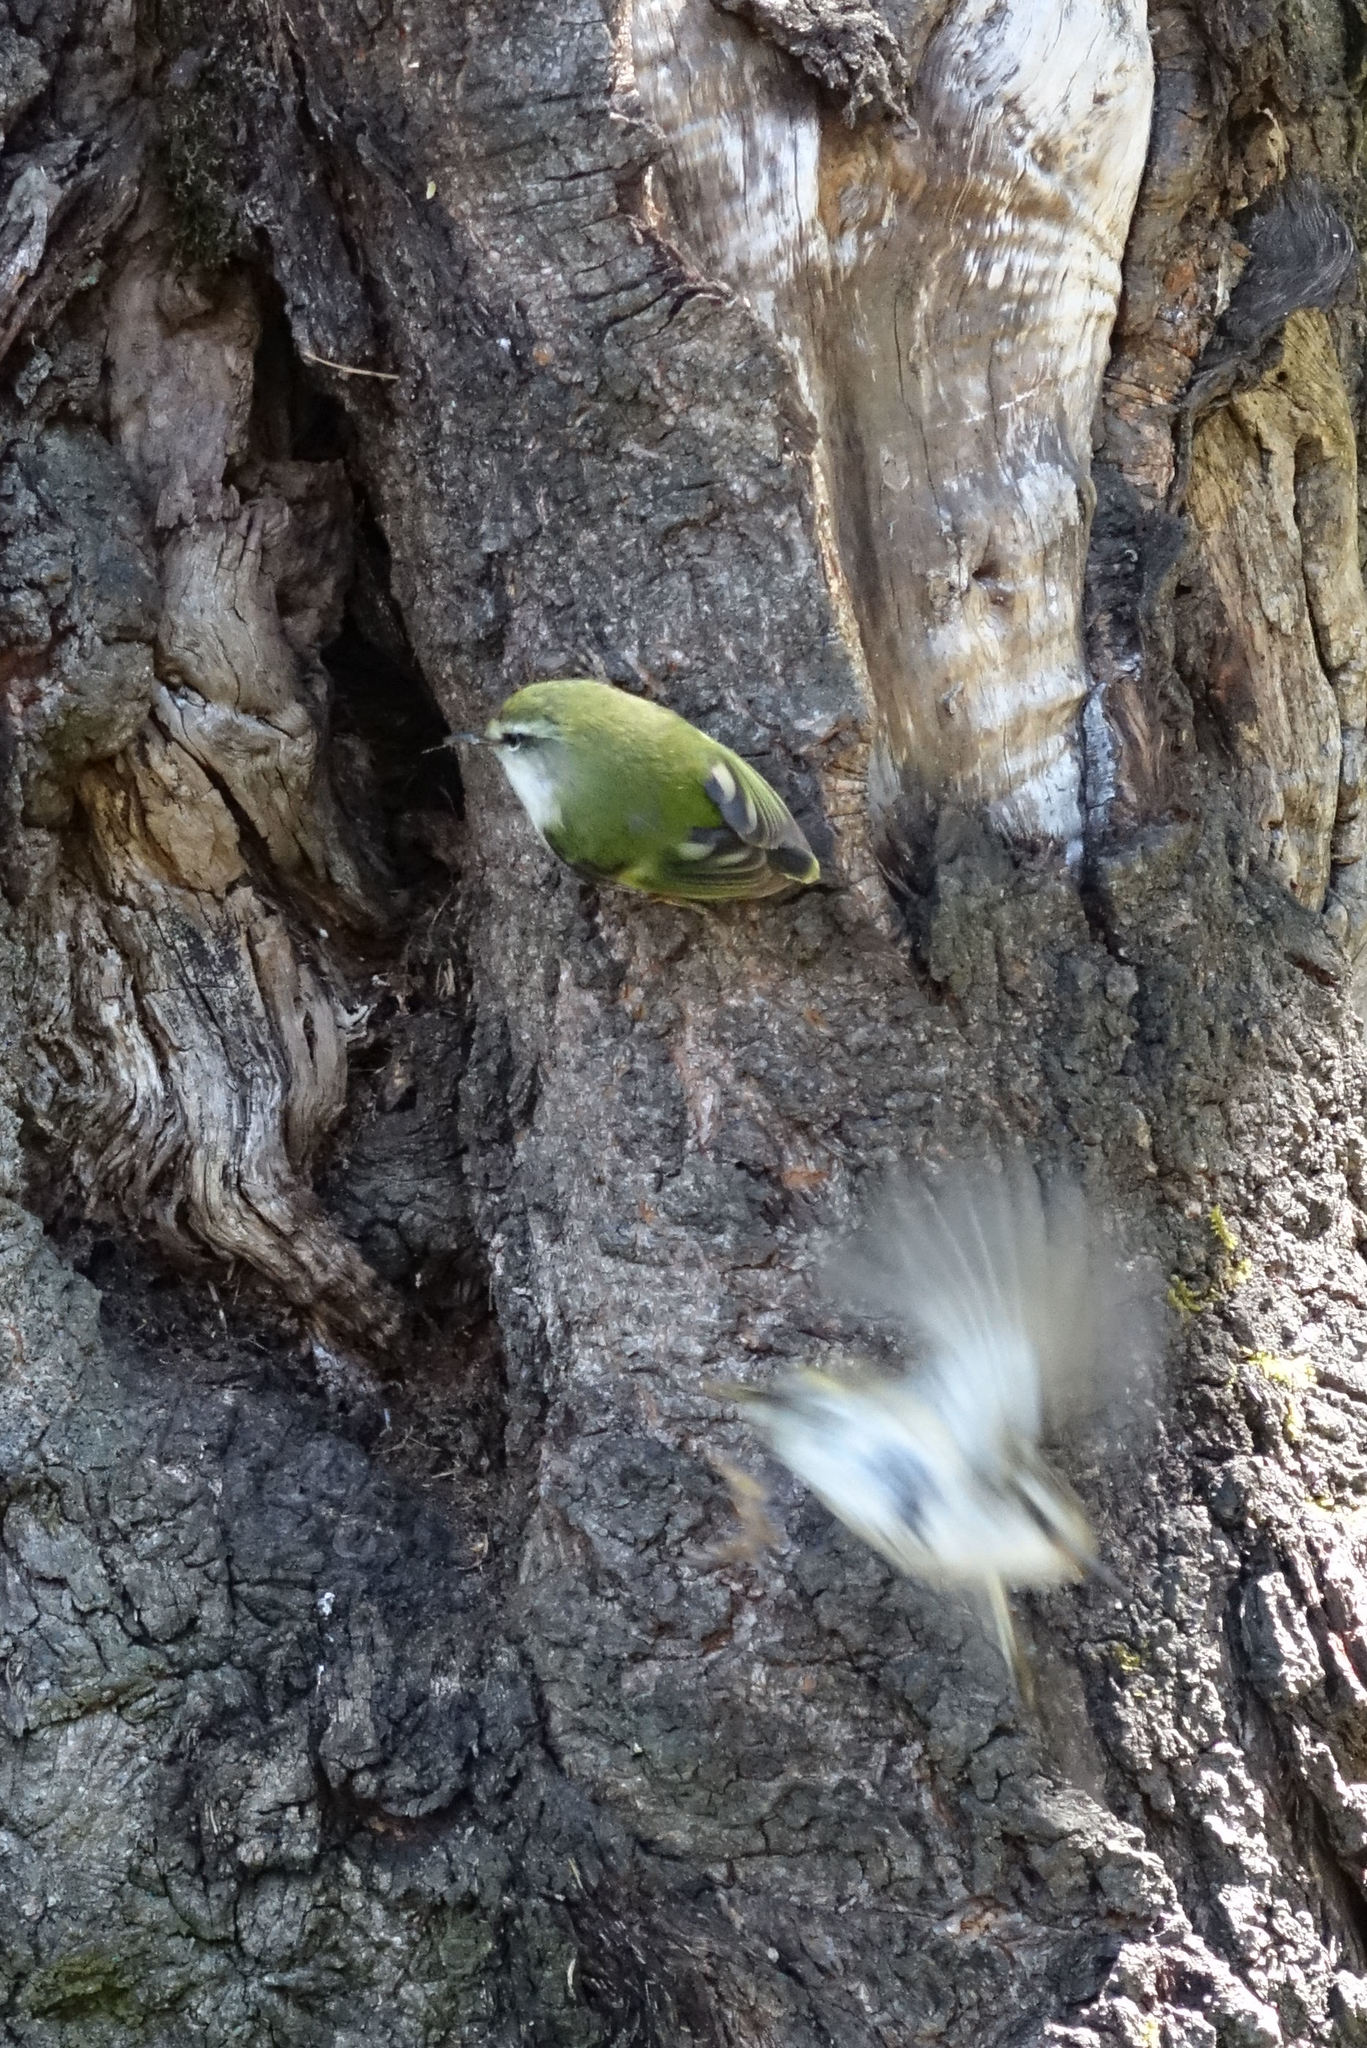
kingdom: Animalia
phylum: Chordata
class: Aves
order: Passeriformes
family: Acanthisittidae
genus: Acanthisitta
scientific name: Acanthisitta chloris
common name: Rifleman
